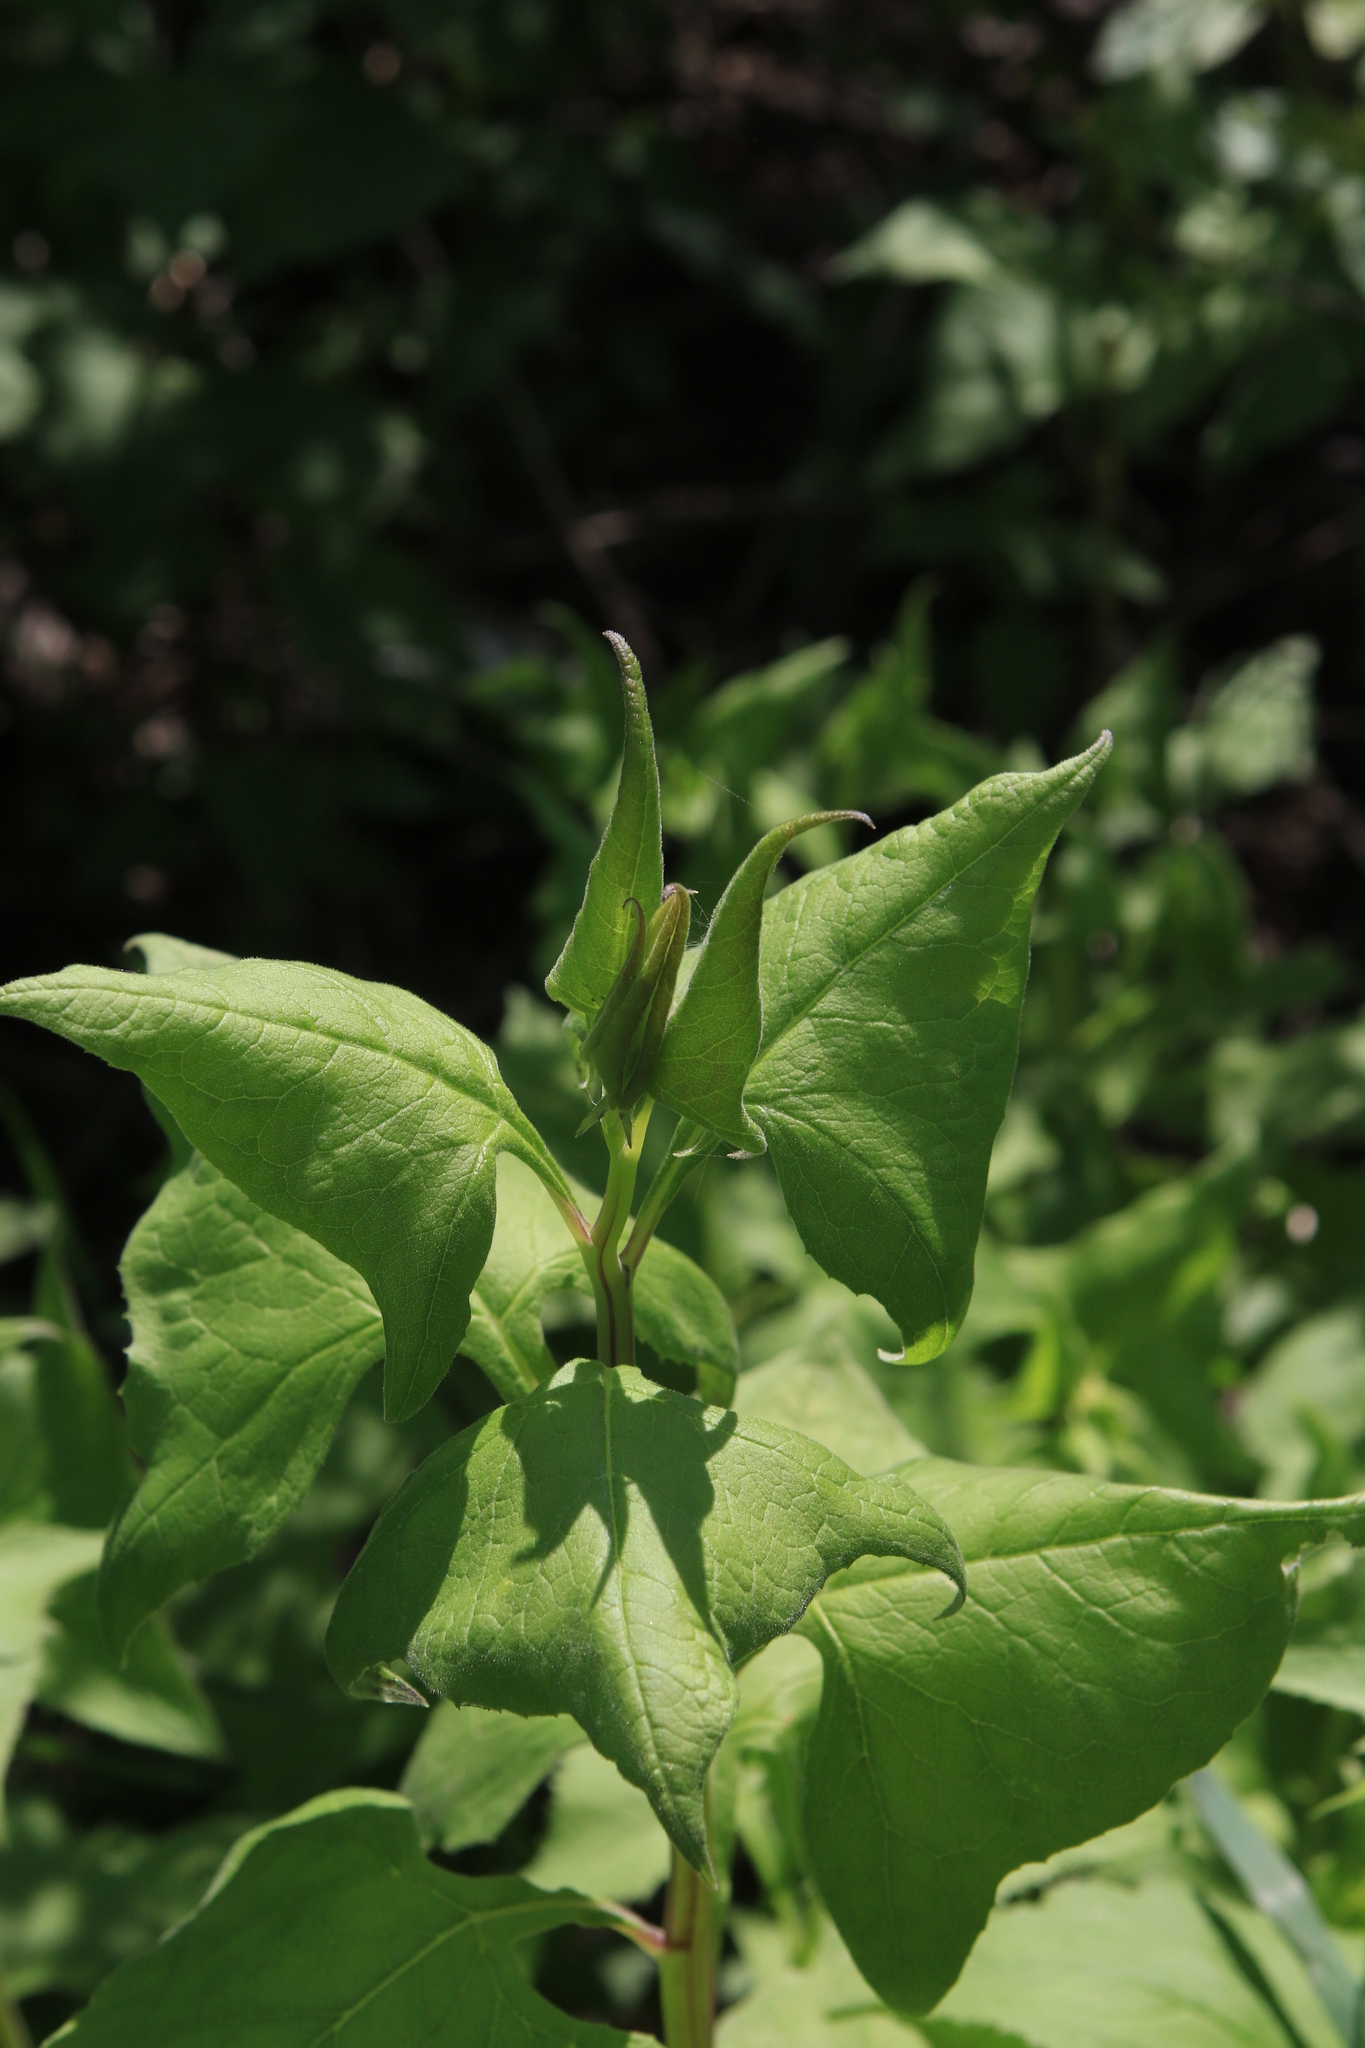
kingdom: Plantae
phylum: Tracheophyta
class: Magnoliopsida
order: Asterales
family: Asteraceae
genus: Parasenecio
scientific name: Parasenecio hastatus
